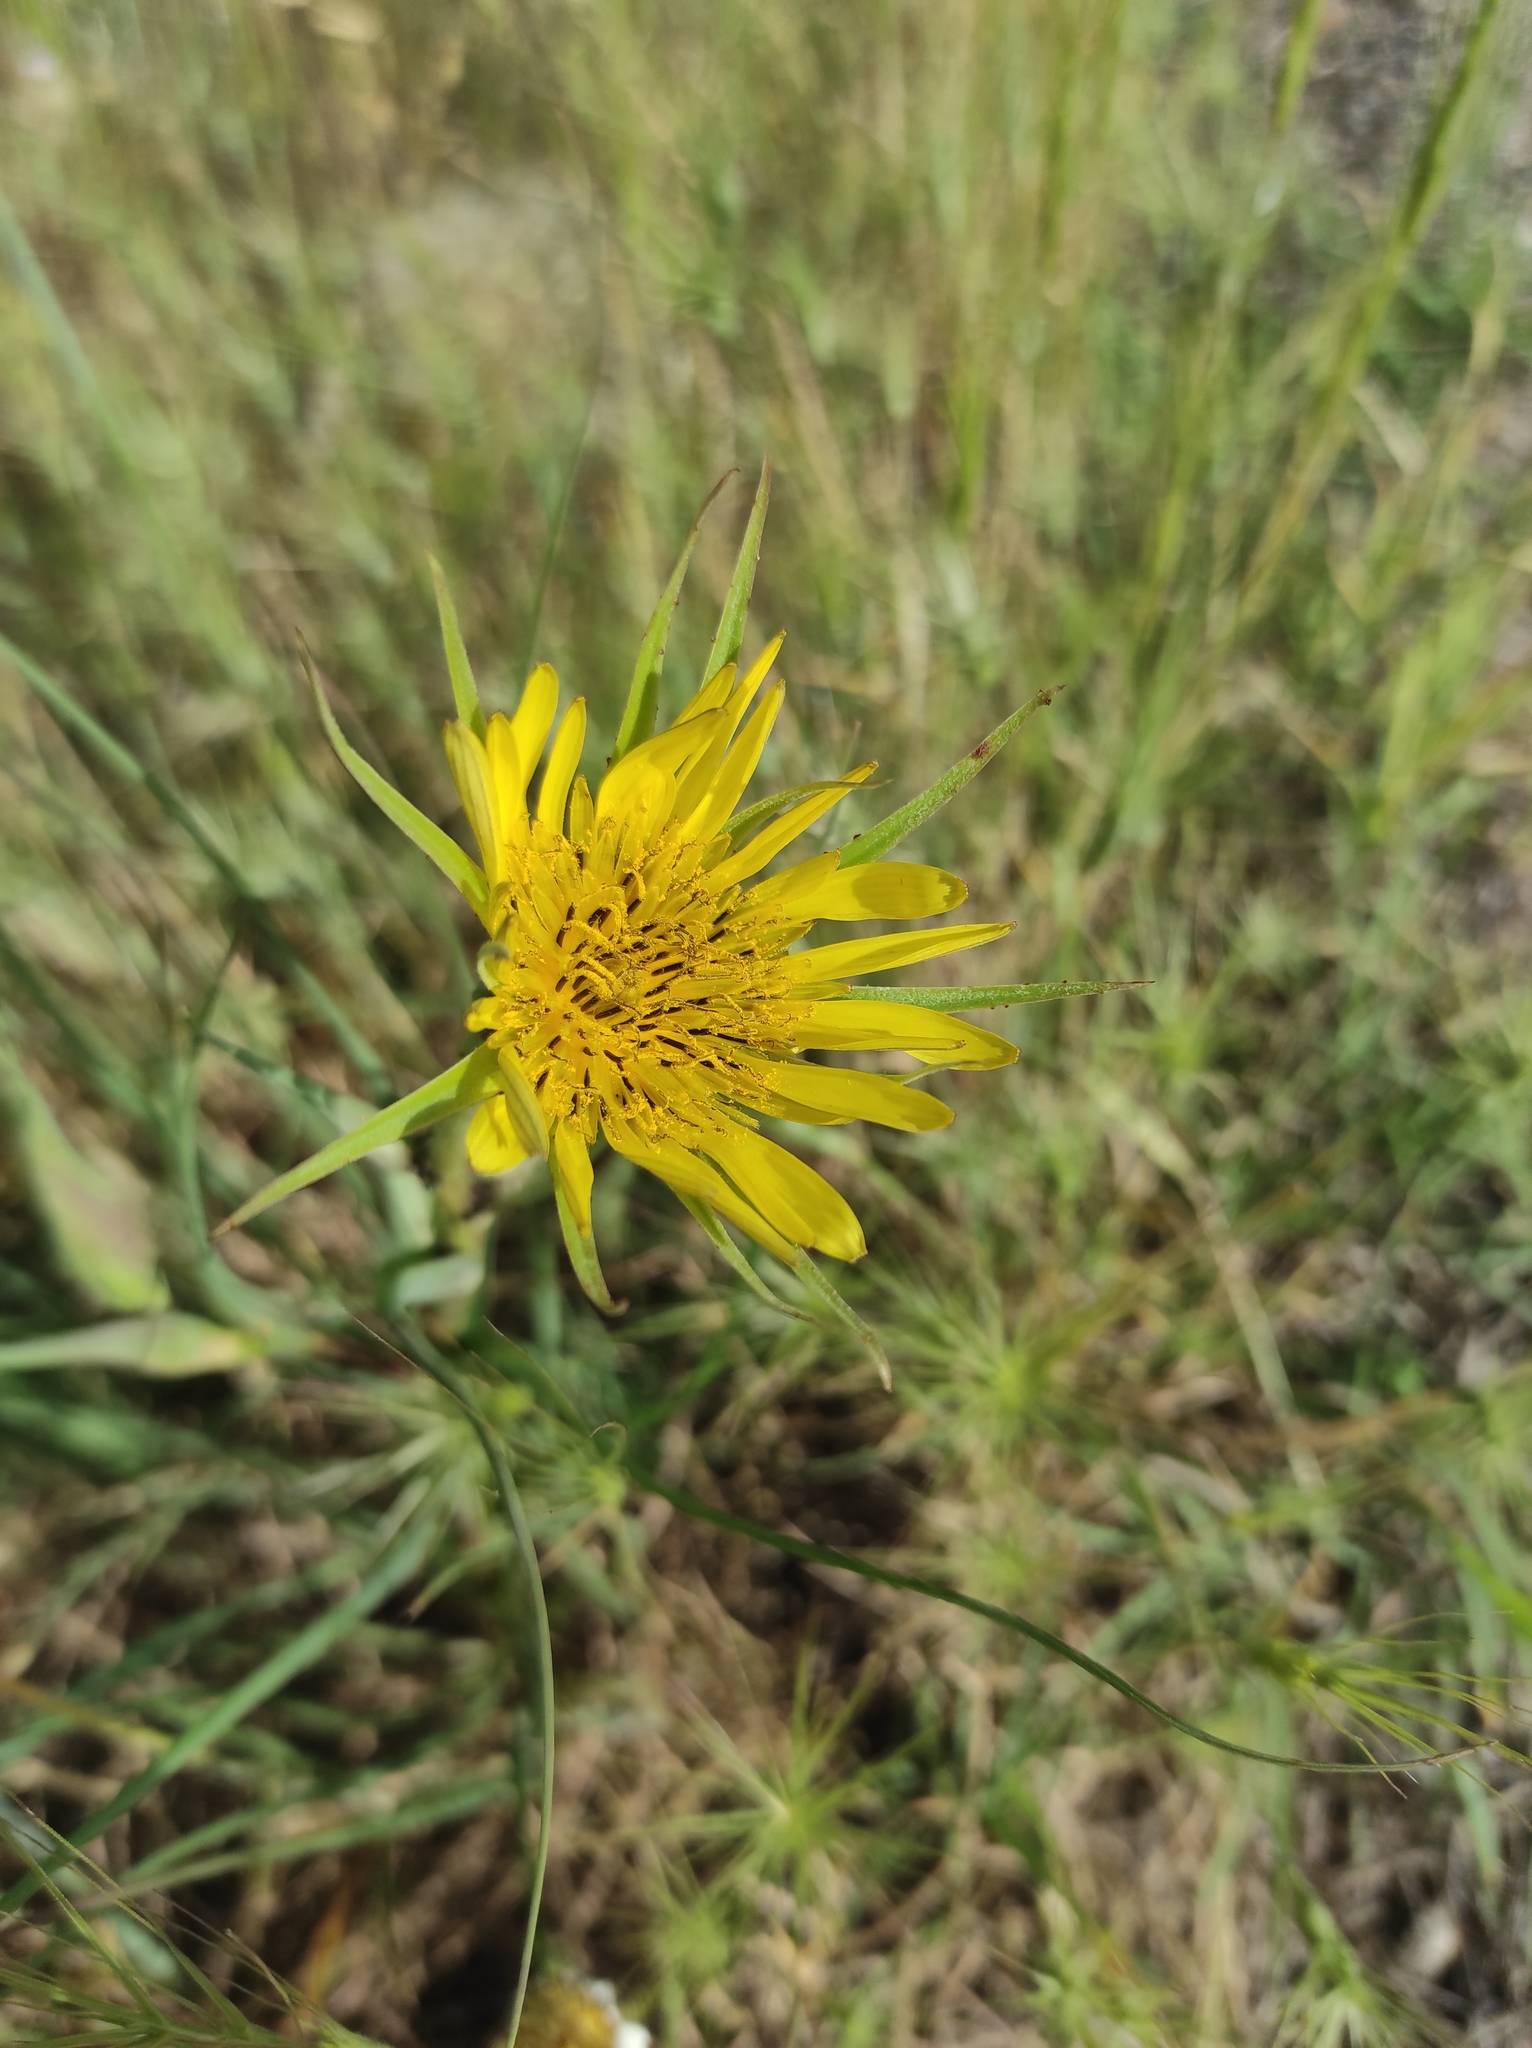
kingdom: Plantae
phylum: Tracheophyta
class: Magnoliopsida
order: Asterales
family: Asteraceae
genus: Tragopogon
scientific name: Tragopogon dubius
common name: Yellow salsify
